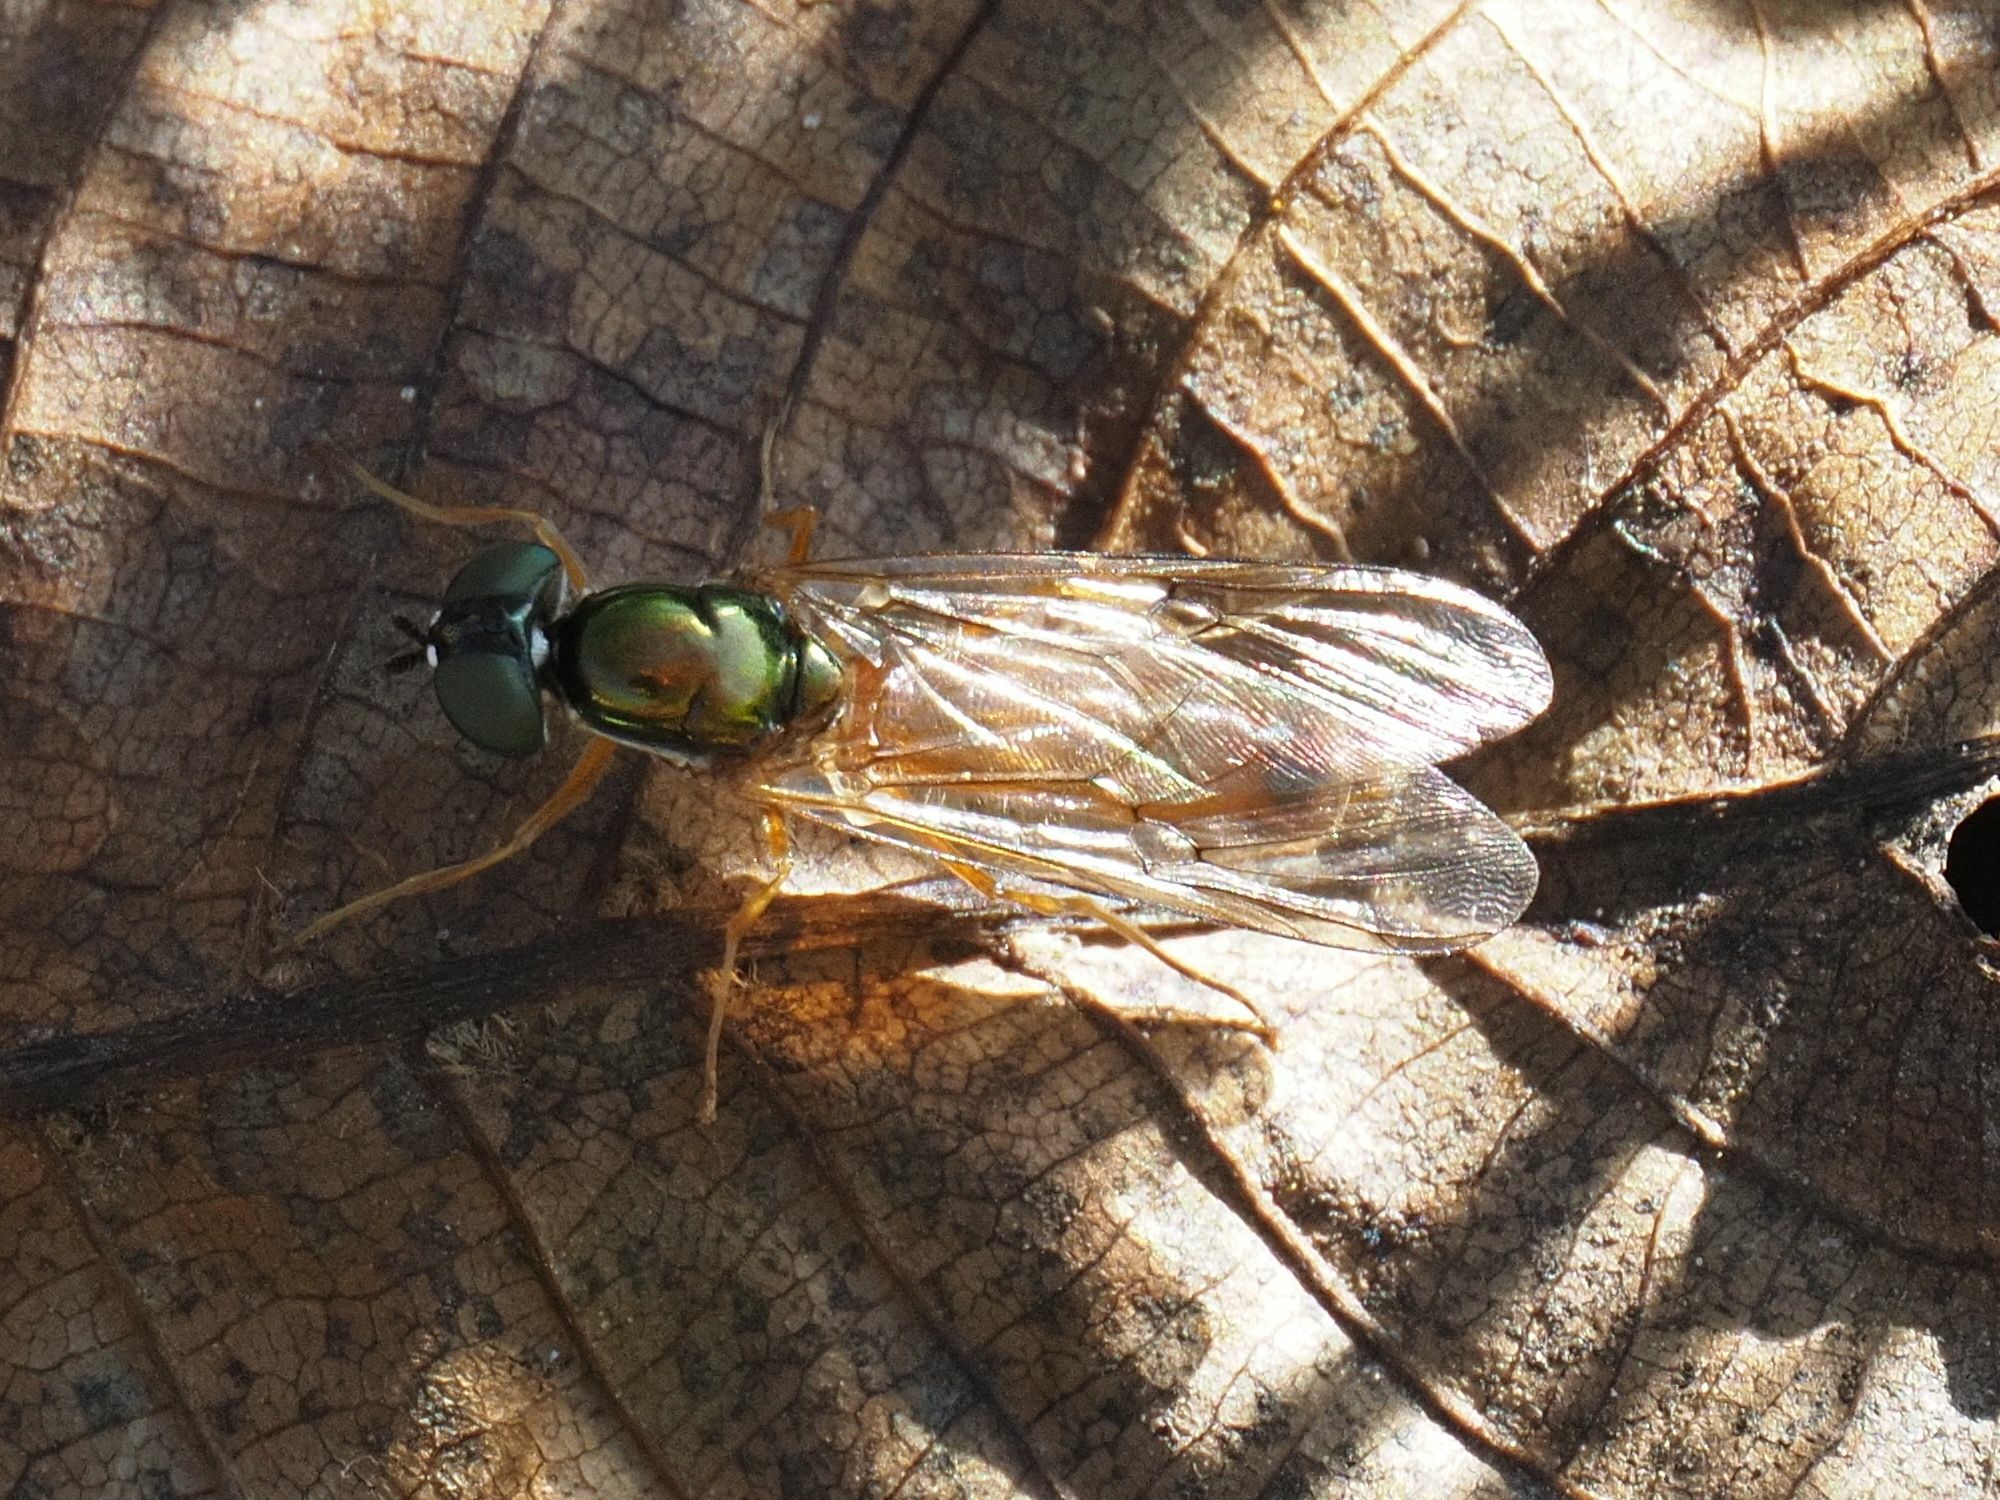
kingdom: Animalia
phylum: Arthropoda
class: Insecta
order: Diptera
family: Stratiomyidae
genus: Sargus
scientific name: Sargus bipunctatus
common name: Twin-spot centurion
